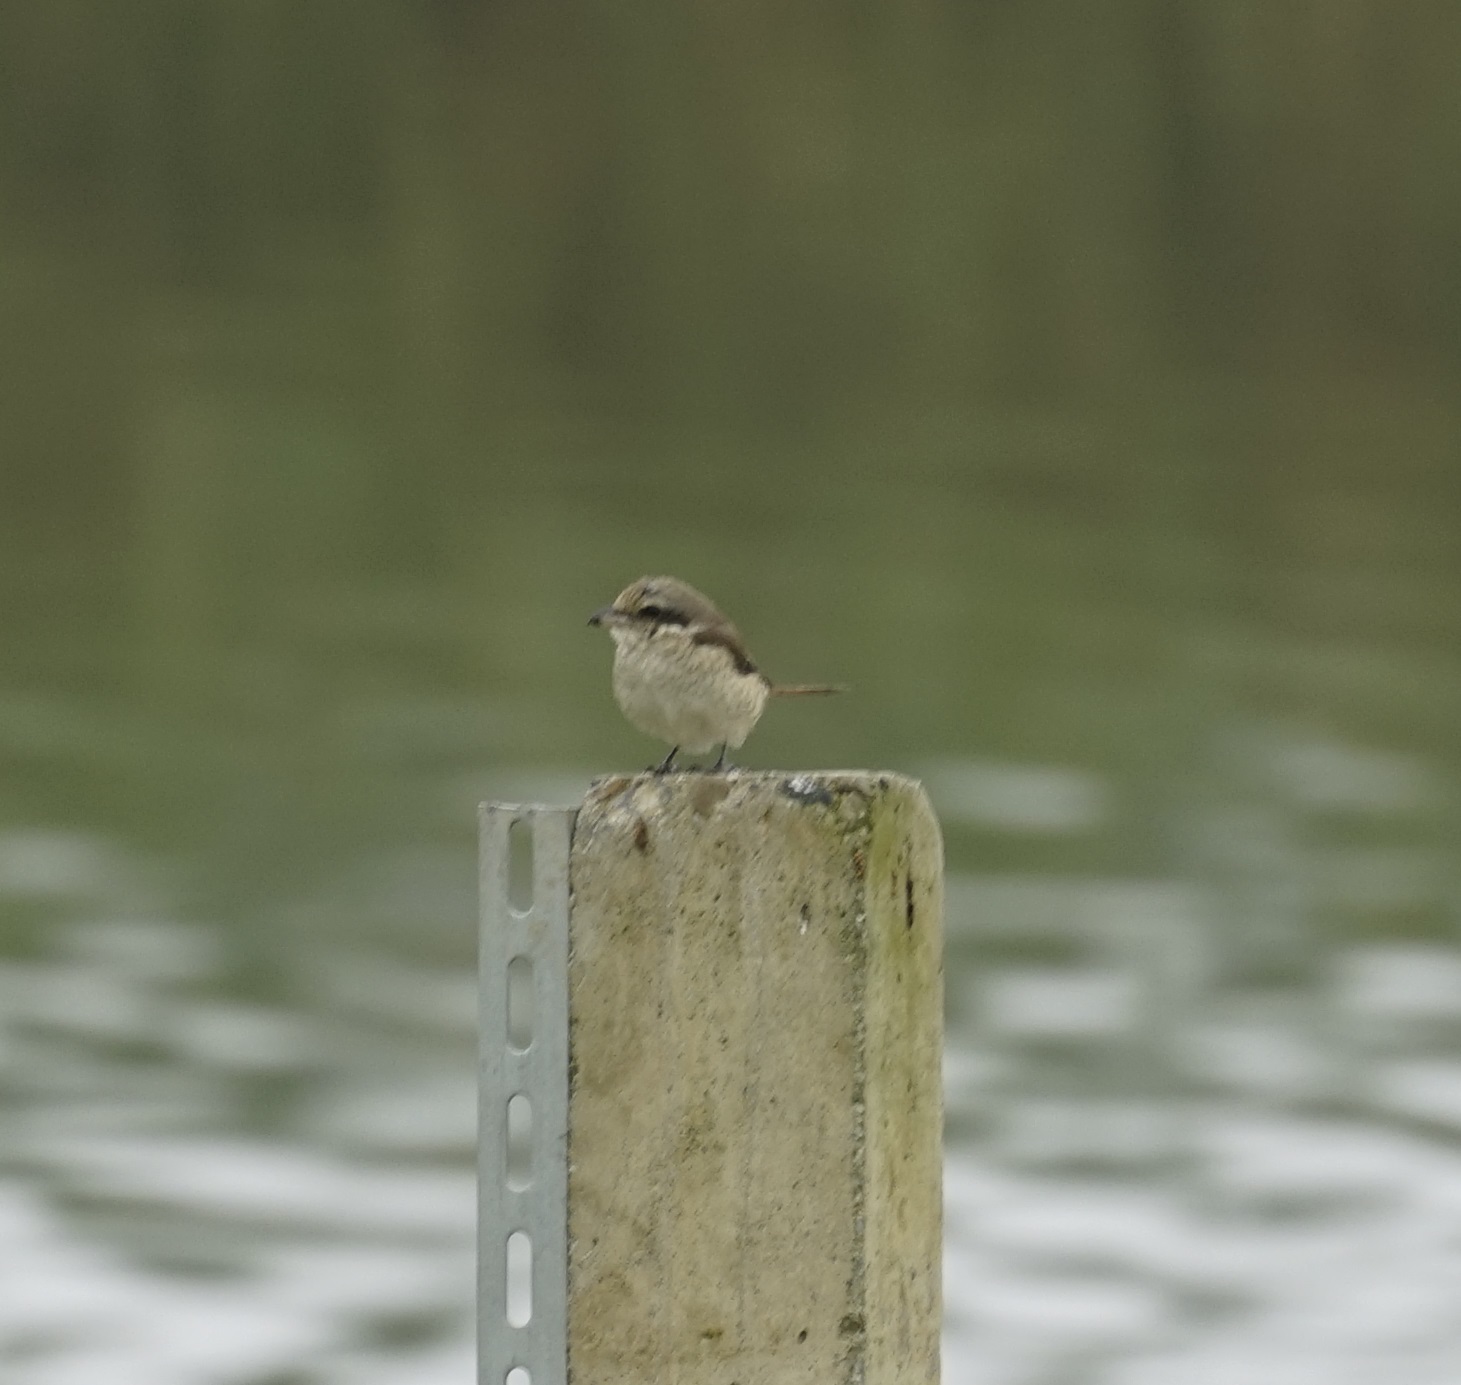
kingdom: Animalia
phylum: Chordata
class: Aves
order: Passeriformes
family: Laniidae
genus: Lanius
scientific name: Lanius cristatus
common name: Brown shrike
